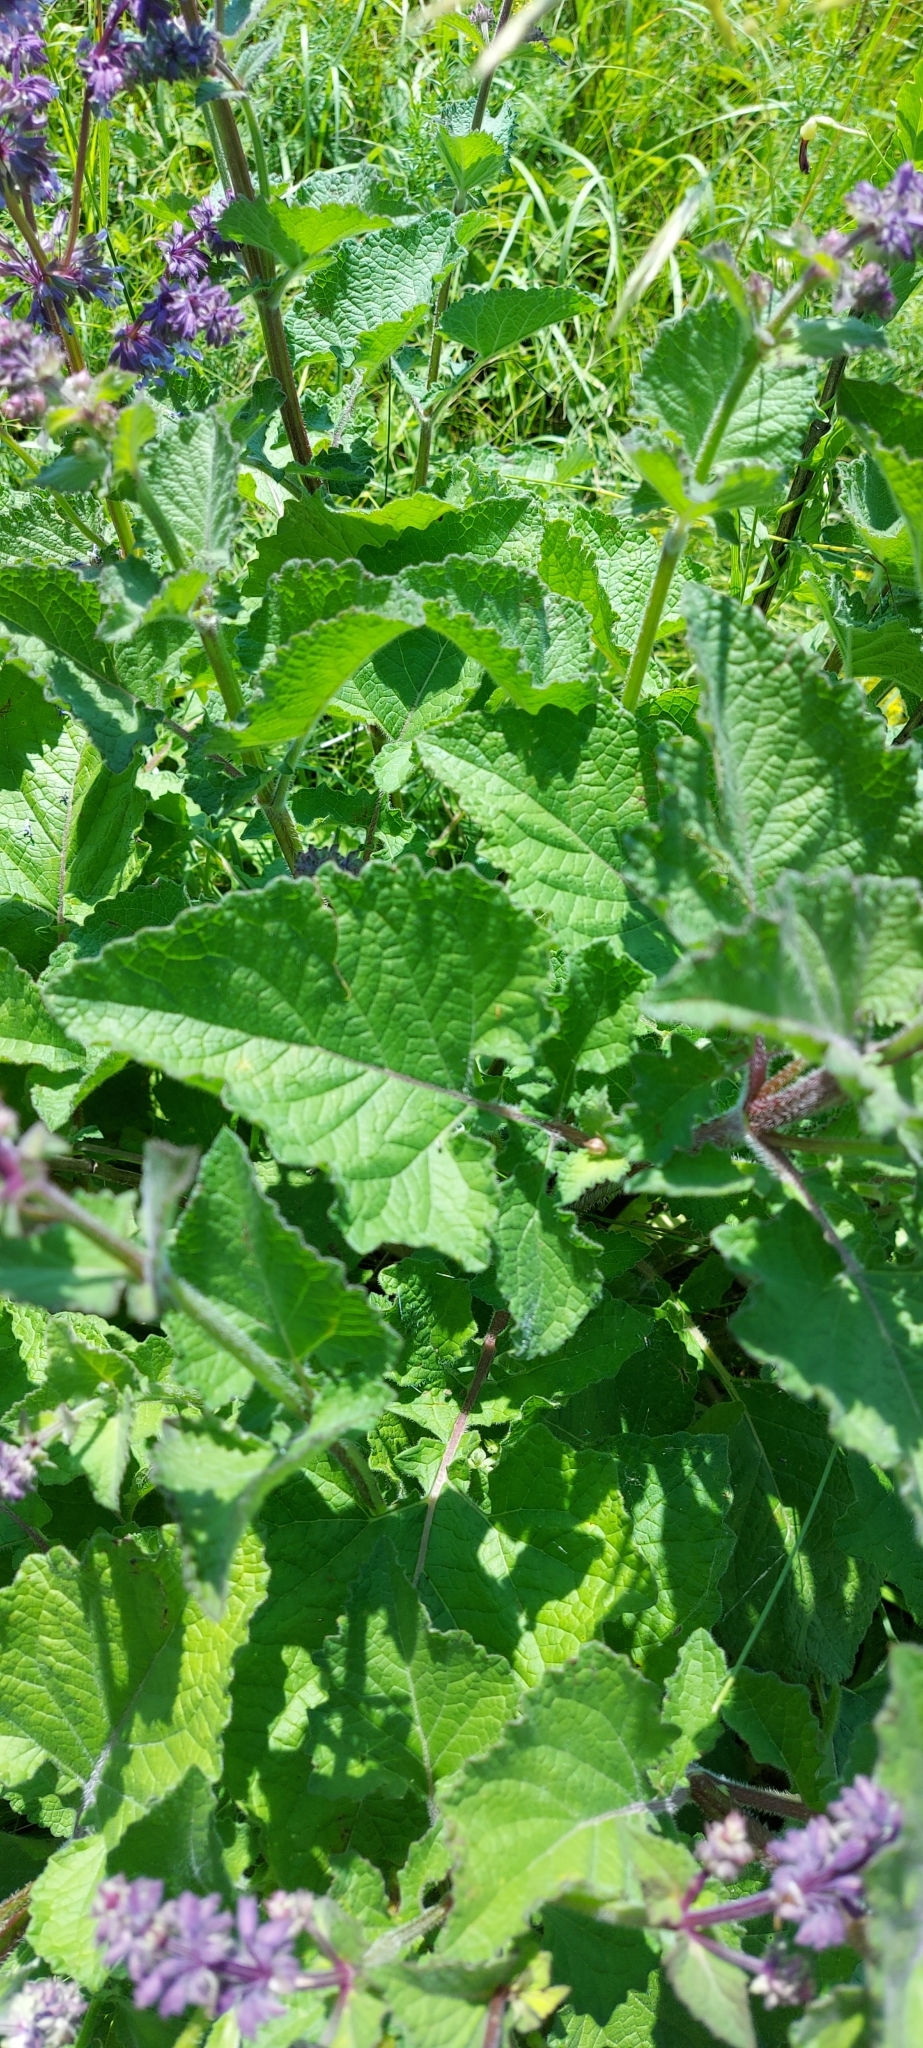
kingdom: Plantae
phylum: Tracheophyta
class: Magnoliopsida
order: Lamiales
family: Lamiaceae
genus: Salvia
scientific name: Salvia verticillata
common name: Whorled clary
